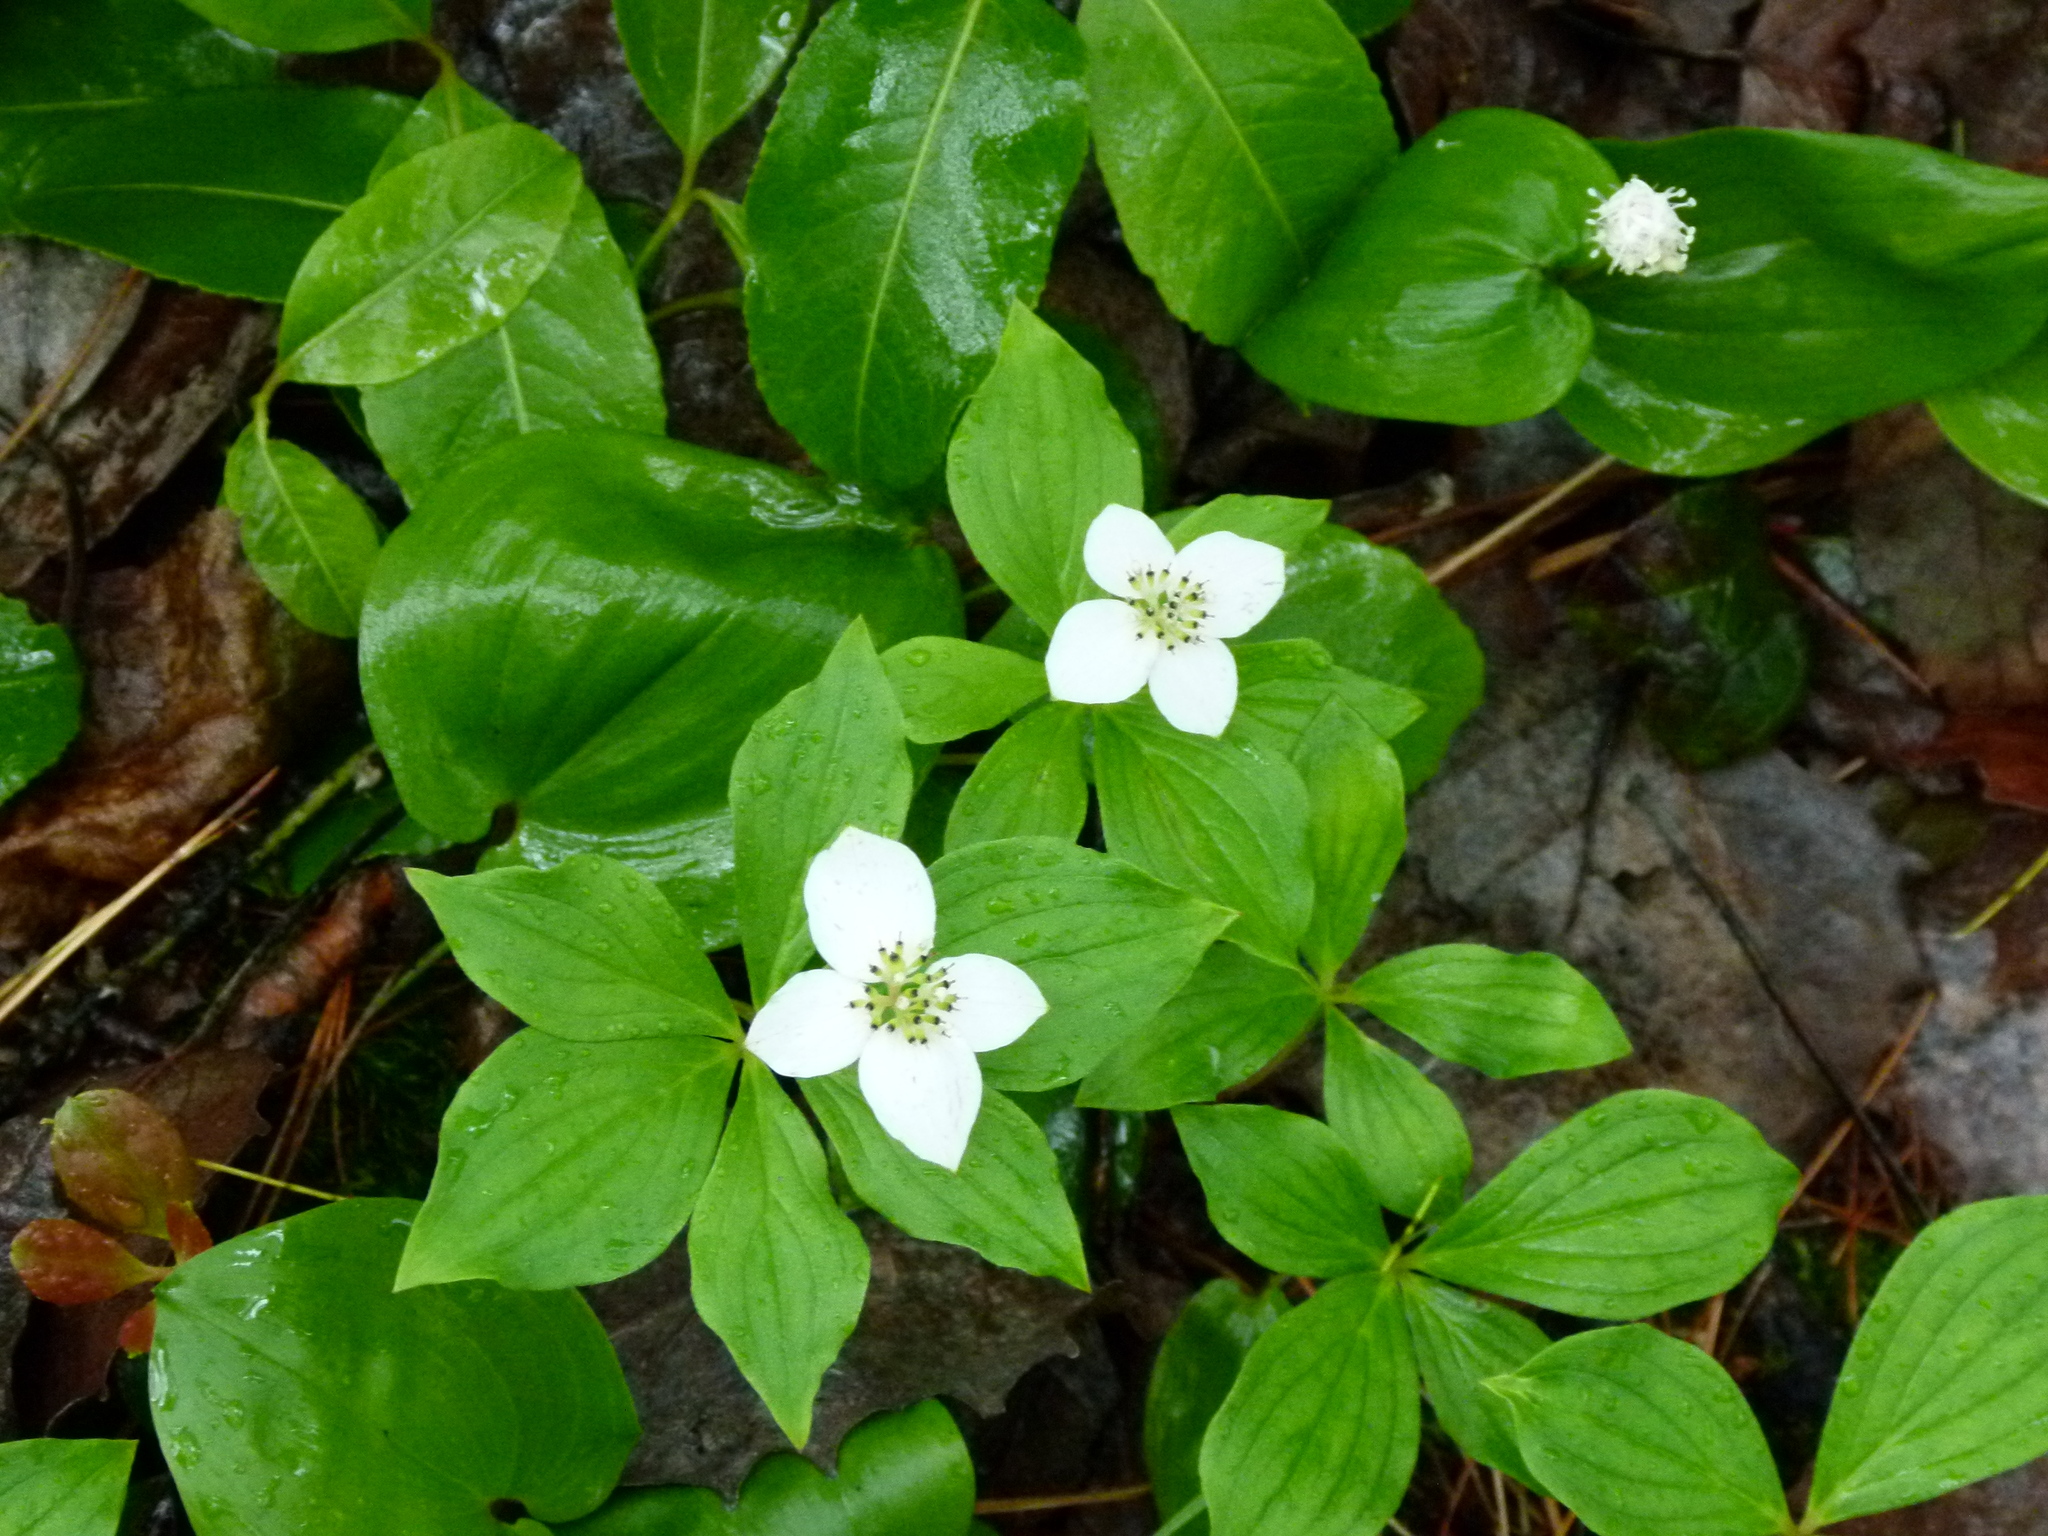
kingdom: Plantae
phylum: Tracheophyta
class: Magnoliopsida
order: Cornales
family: Cornaceae
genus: Cornus
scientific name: Cornus canadensis
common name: Creeping dogwood
